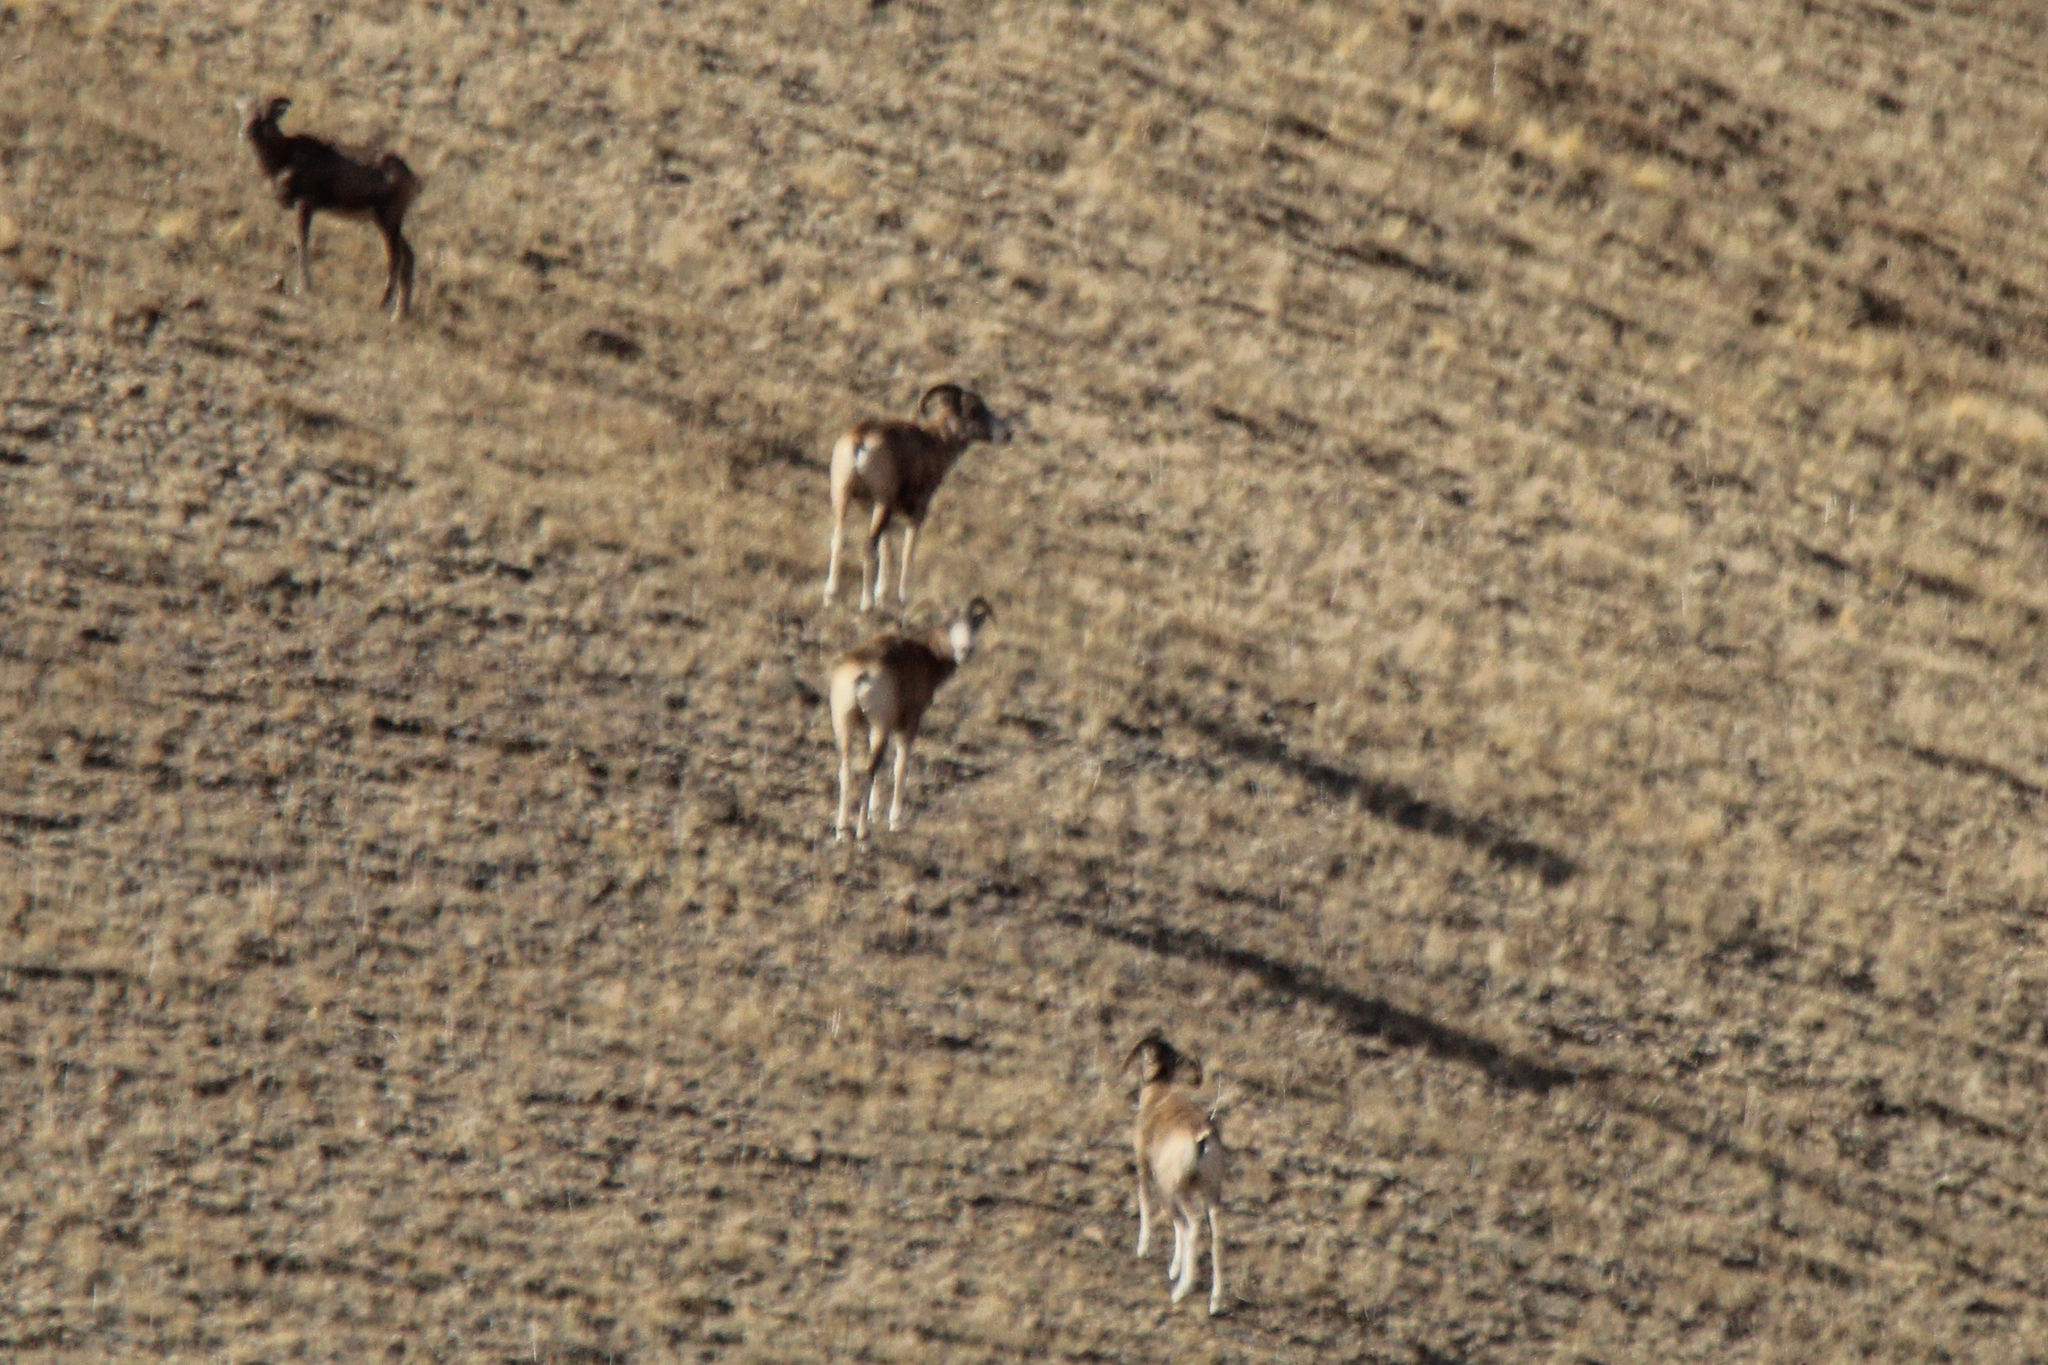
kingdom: Animalia
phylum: Chordata
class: Mammalia
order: Artiodactyla
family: Bovidae
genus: Ovis
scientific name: Ovis ammon
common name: Argali
